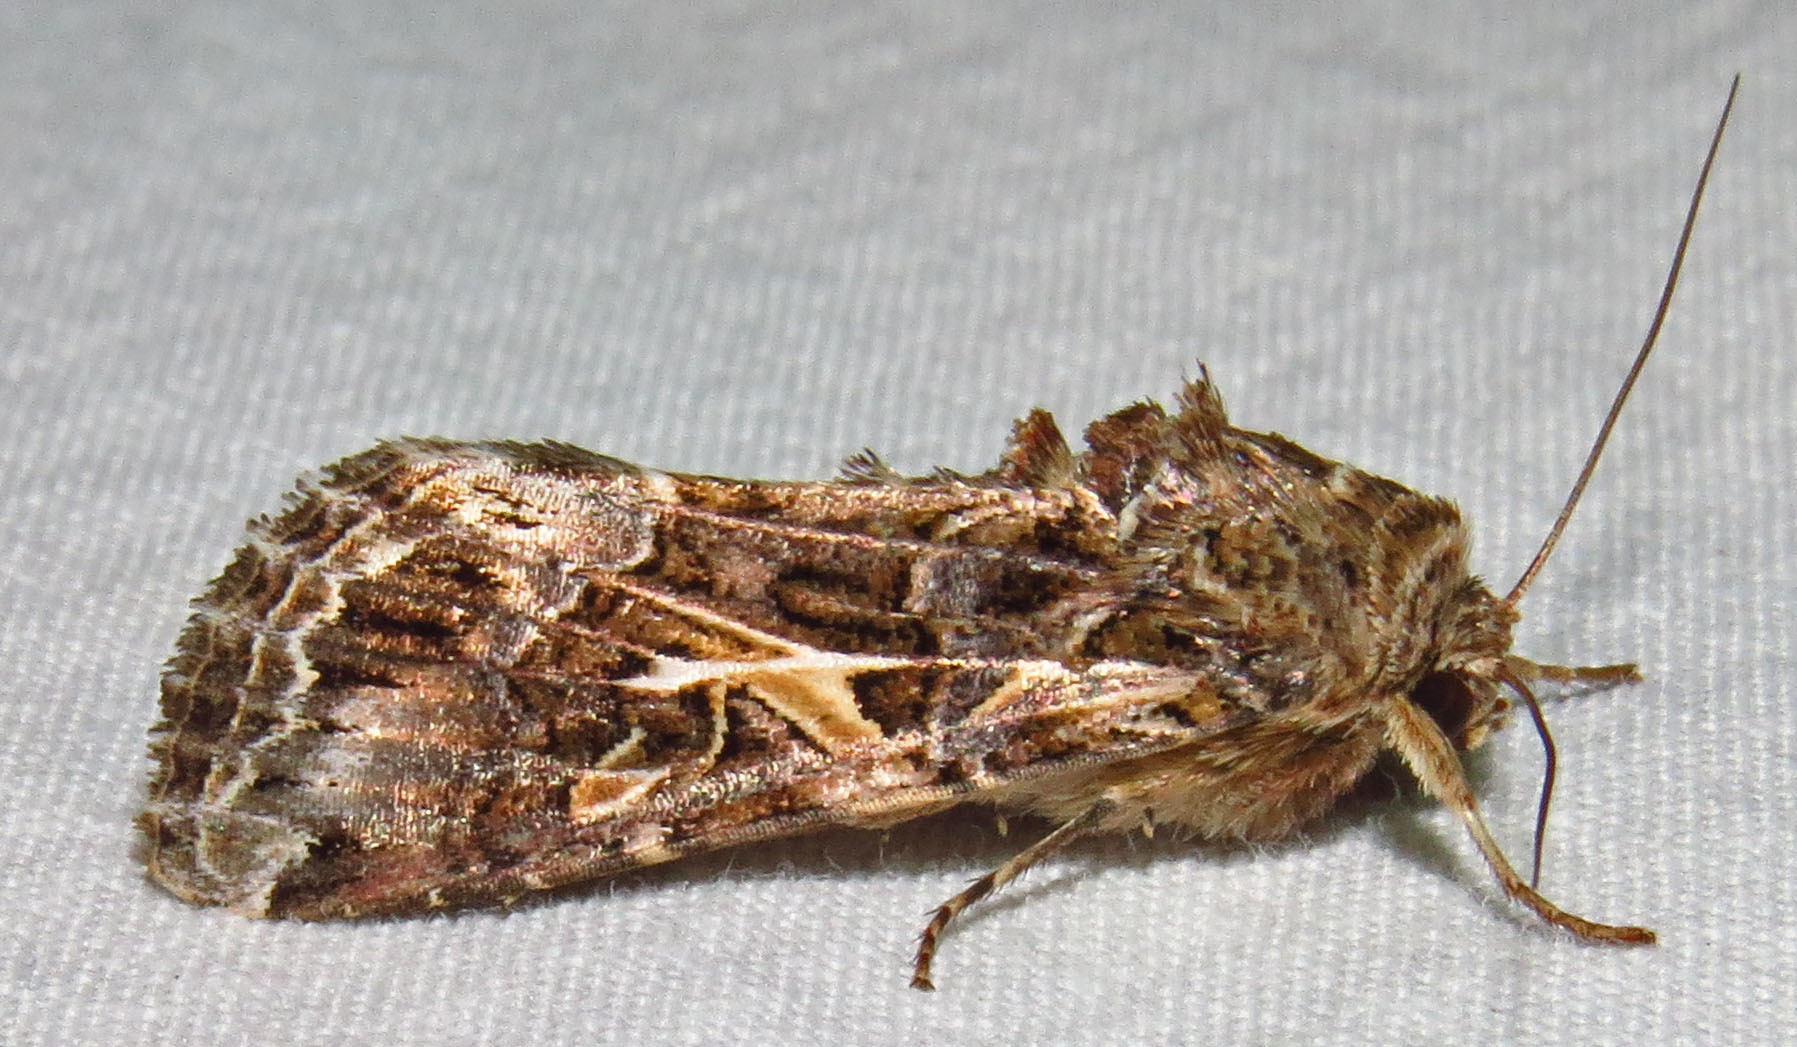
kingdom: Animalia
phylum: Arthropoda
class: Insecta
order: Lepidoptera
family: Noctuidae
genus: Spodoptera
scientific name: Spodoptera ornithogalli
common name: Yellow-striped armyworm
